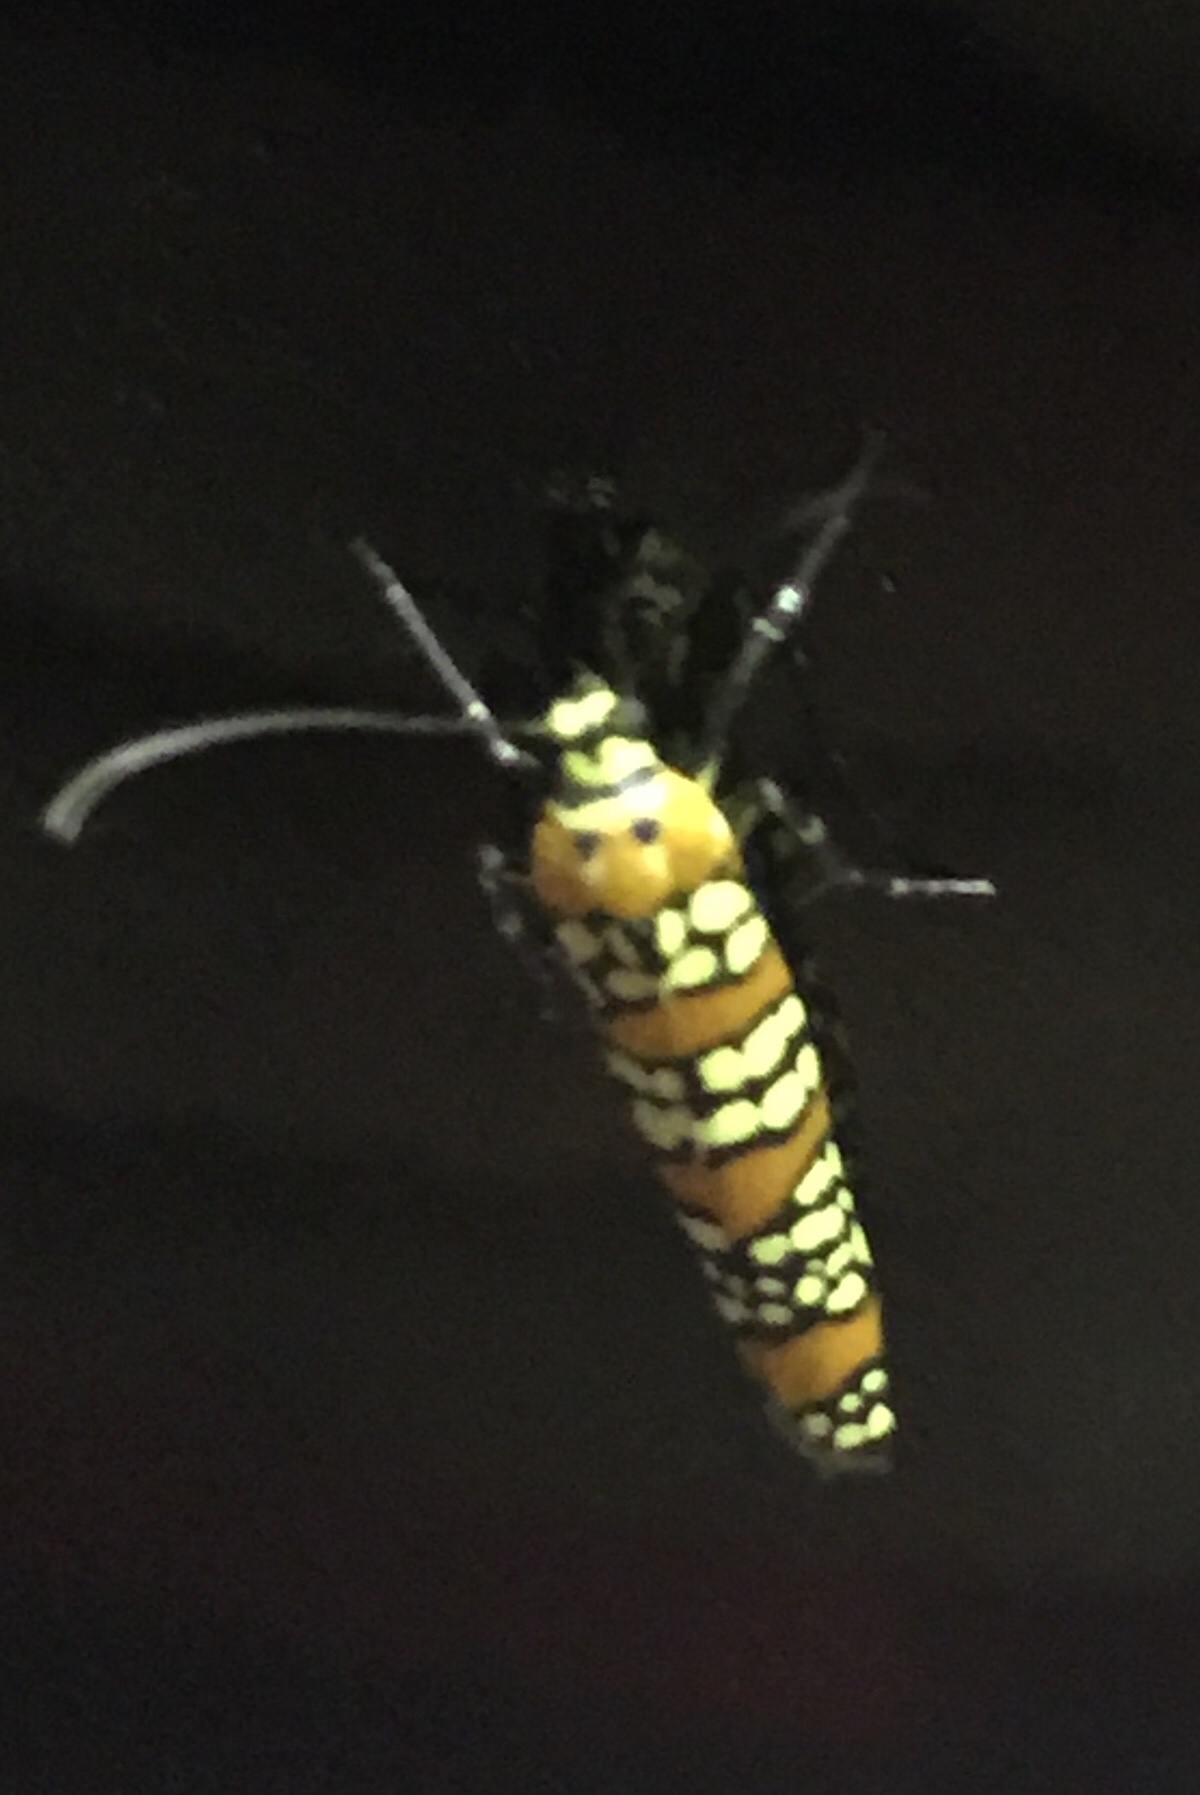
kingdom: Animalia
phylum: Arthropoda
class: Insecta
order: Lepidoptera
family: Attevidae
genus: Atteva
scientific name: Atteva punctella
